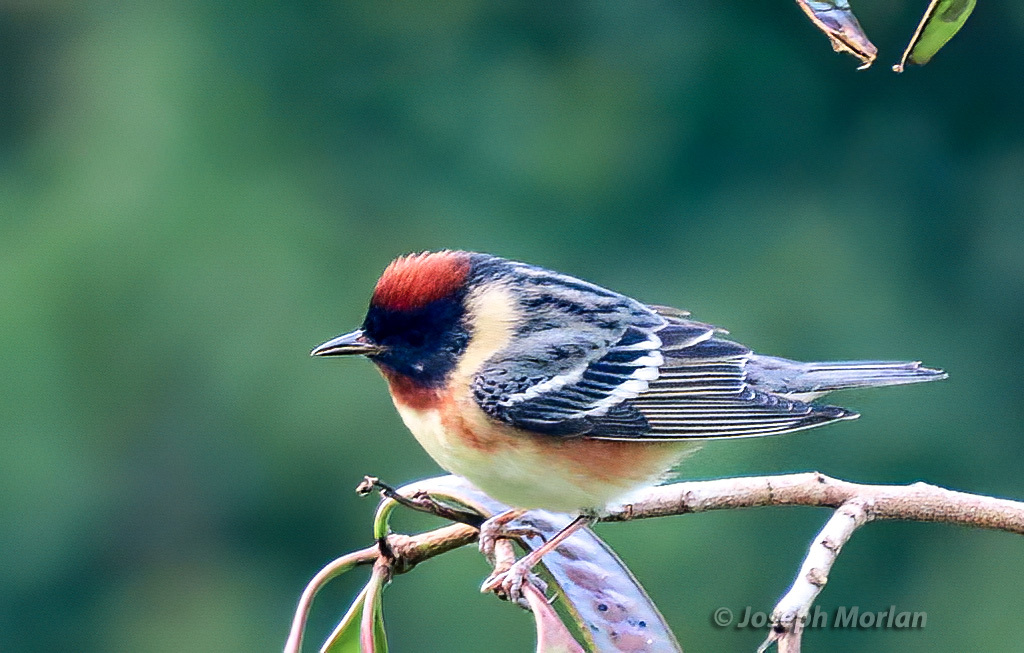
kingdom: Animalia
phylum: Chordata
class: Aves
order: Passeriformes
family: Parulidae
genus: Setophaga
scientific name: Setophaga castanea
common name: Bay-breasted warbler
